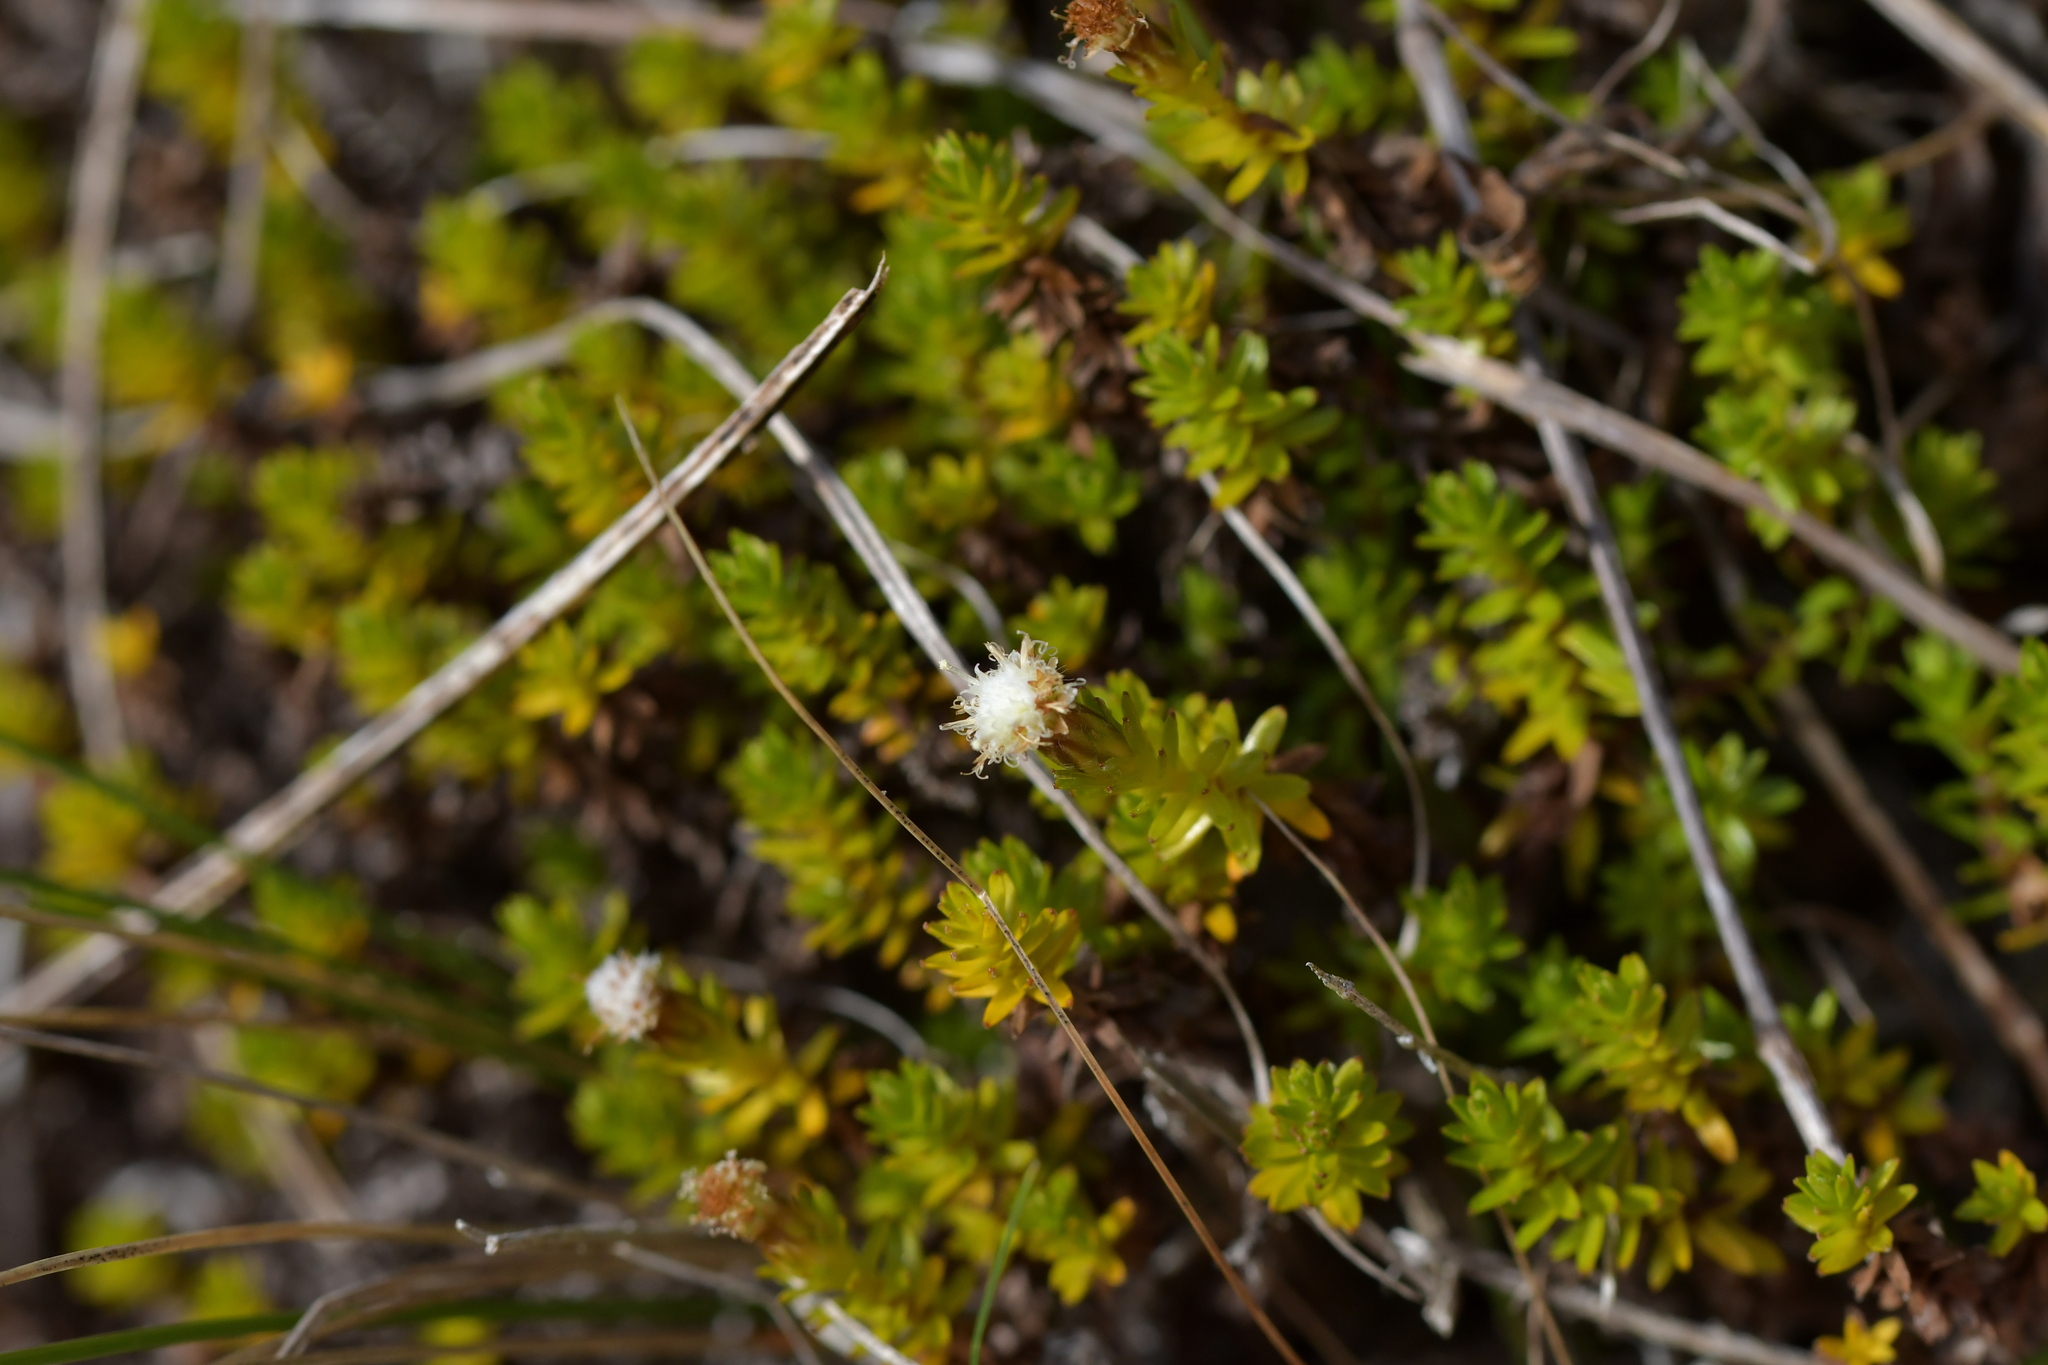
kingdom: Plantae
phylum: Tracheophyta
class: Magnoliopsida
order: Asterales
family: Asteraceae
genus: Raoulia
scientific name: Raoulia glabra
